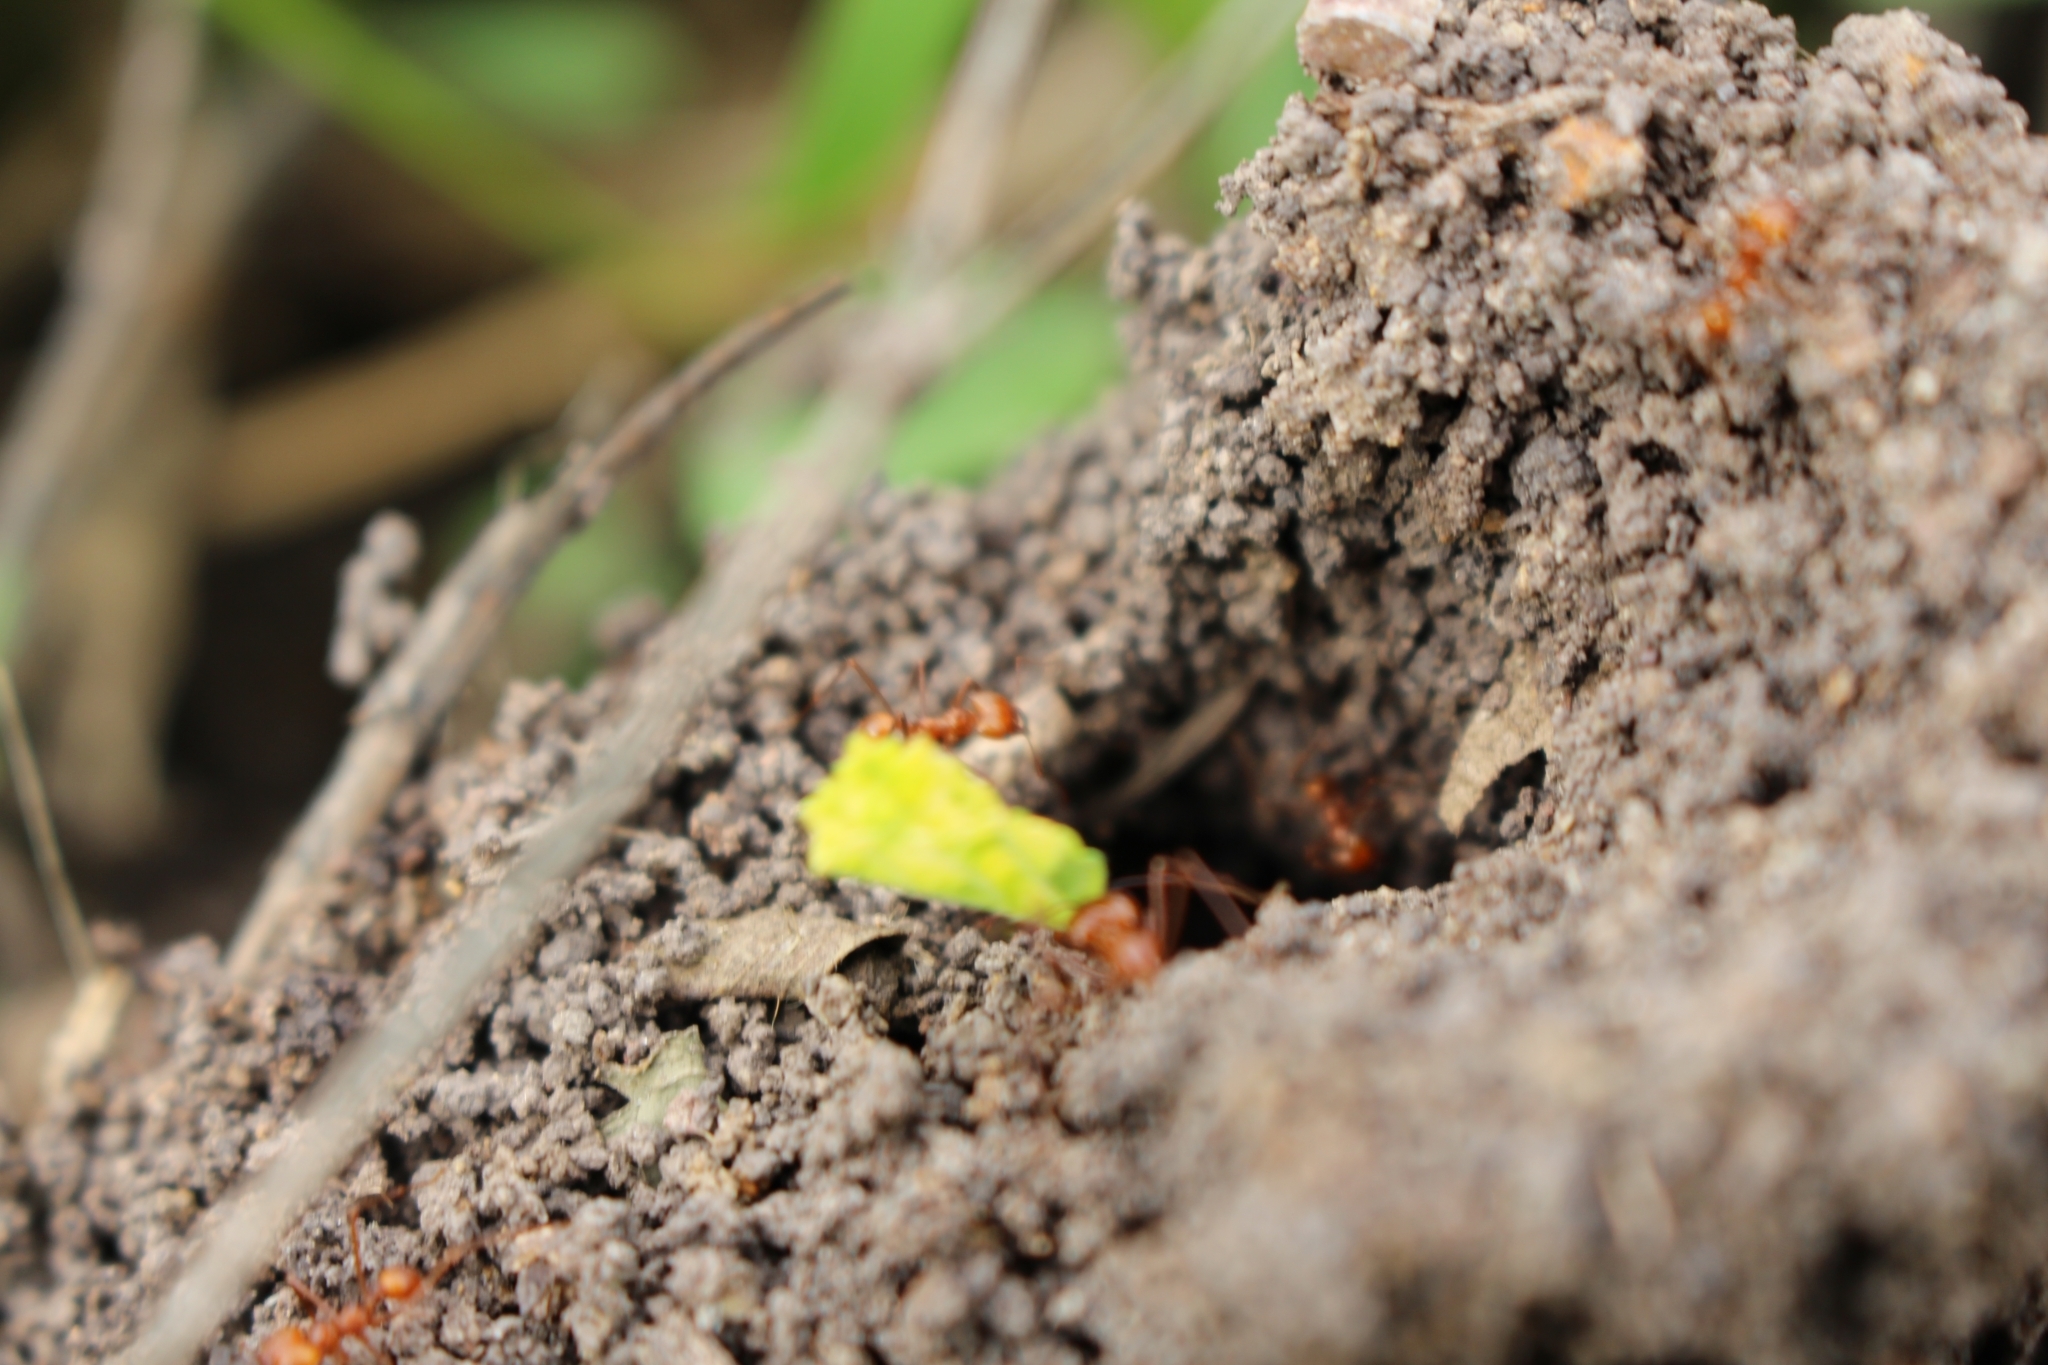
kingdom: Animalia
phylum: Arthropoda
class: Insecta
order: Hymenoptera
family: Formicidae
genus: Atta
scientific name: Atta cephalotes
